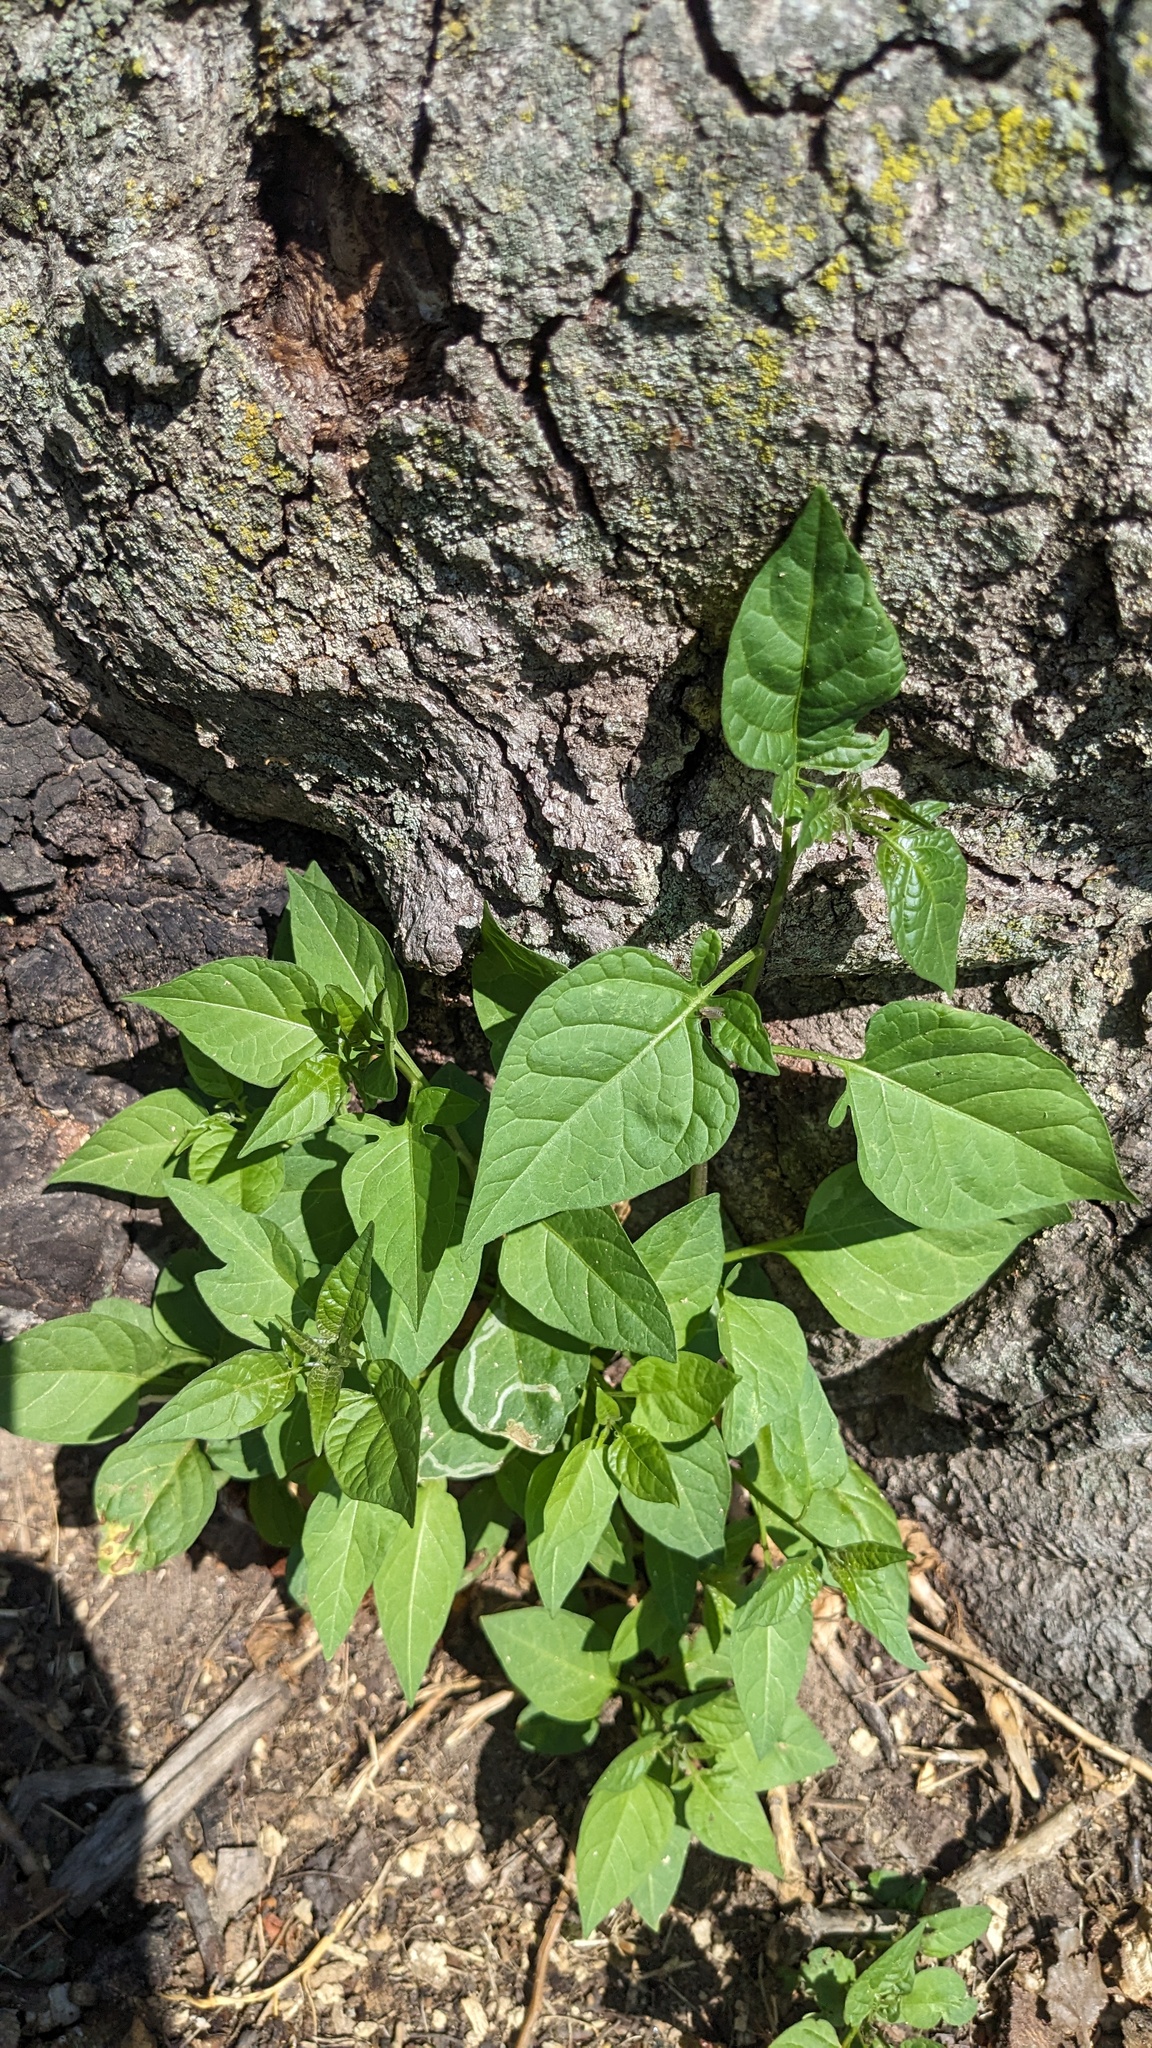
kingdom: Plantae
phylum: Tracheophyta
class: Magnoliopsida
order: Solanales
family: Solanaceae
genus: Solanum
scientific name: Solanum dulcamara
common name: Climbing nightshade
